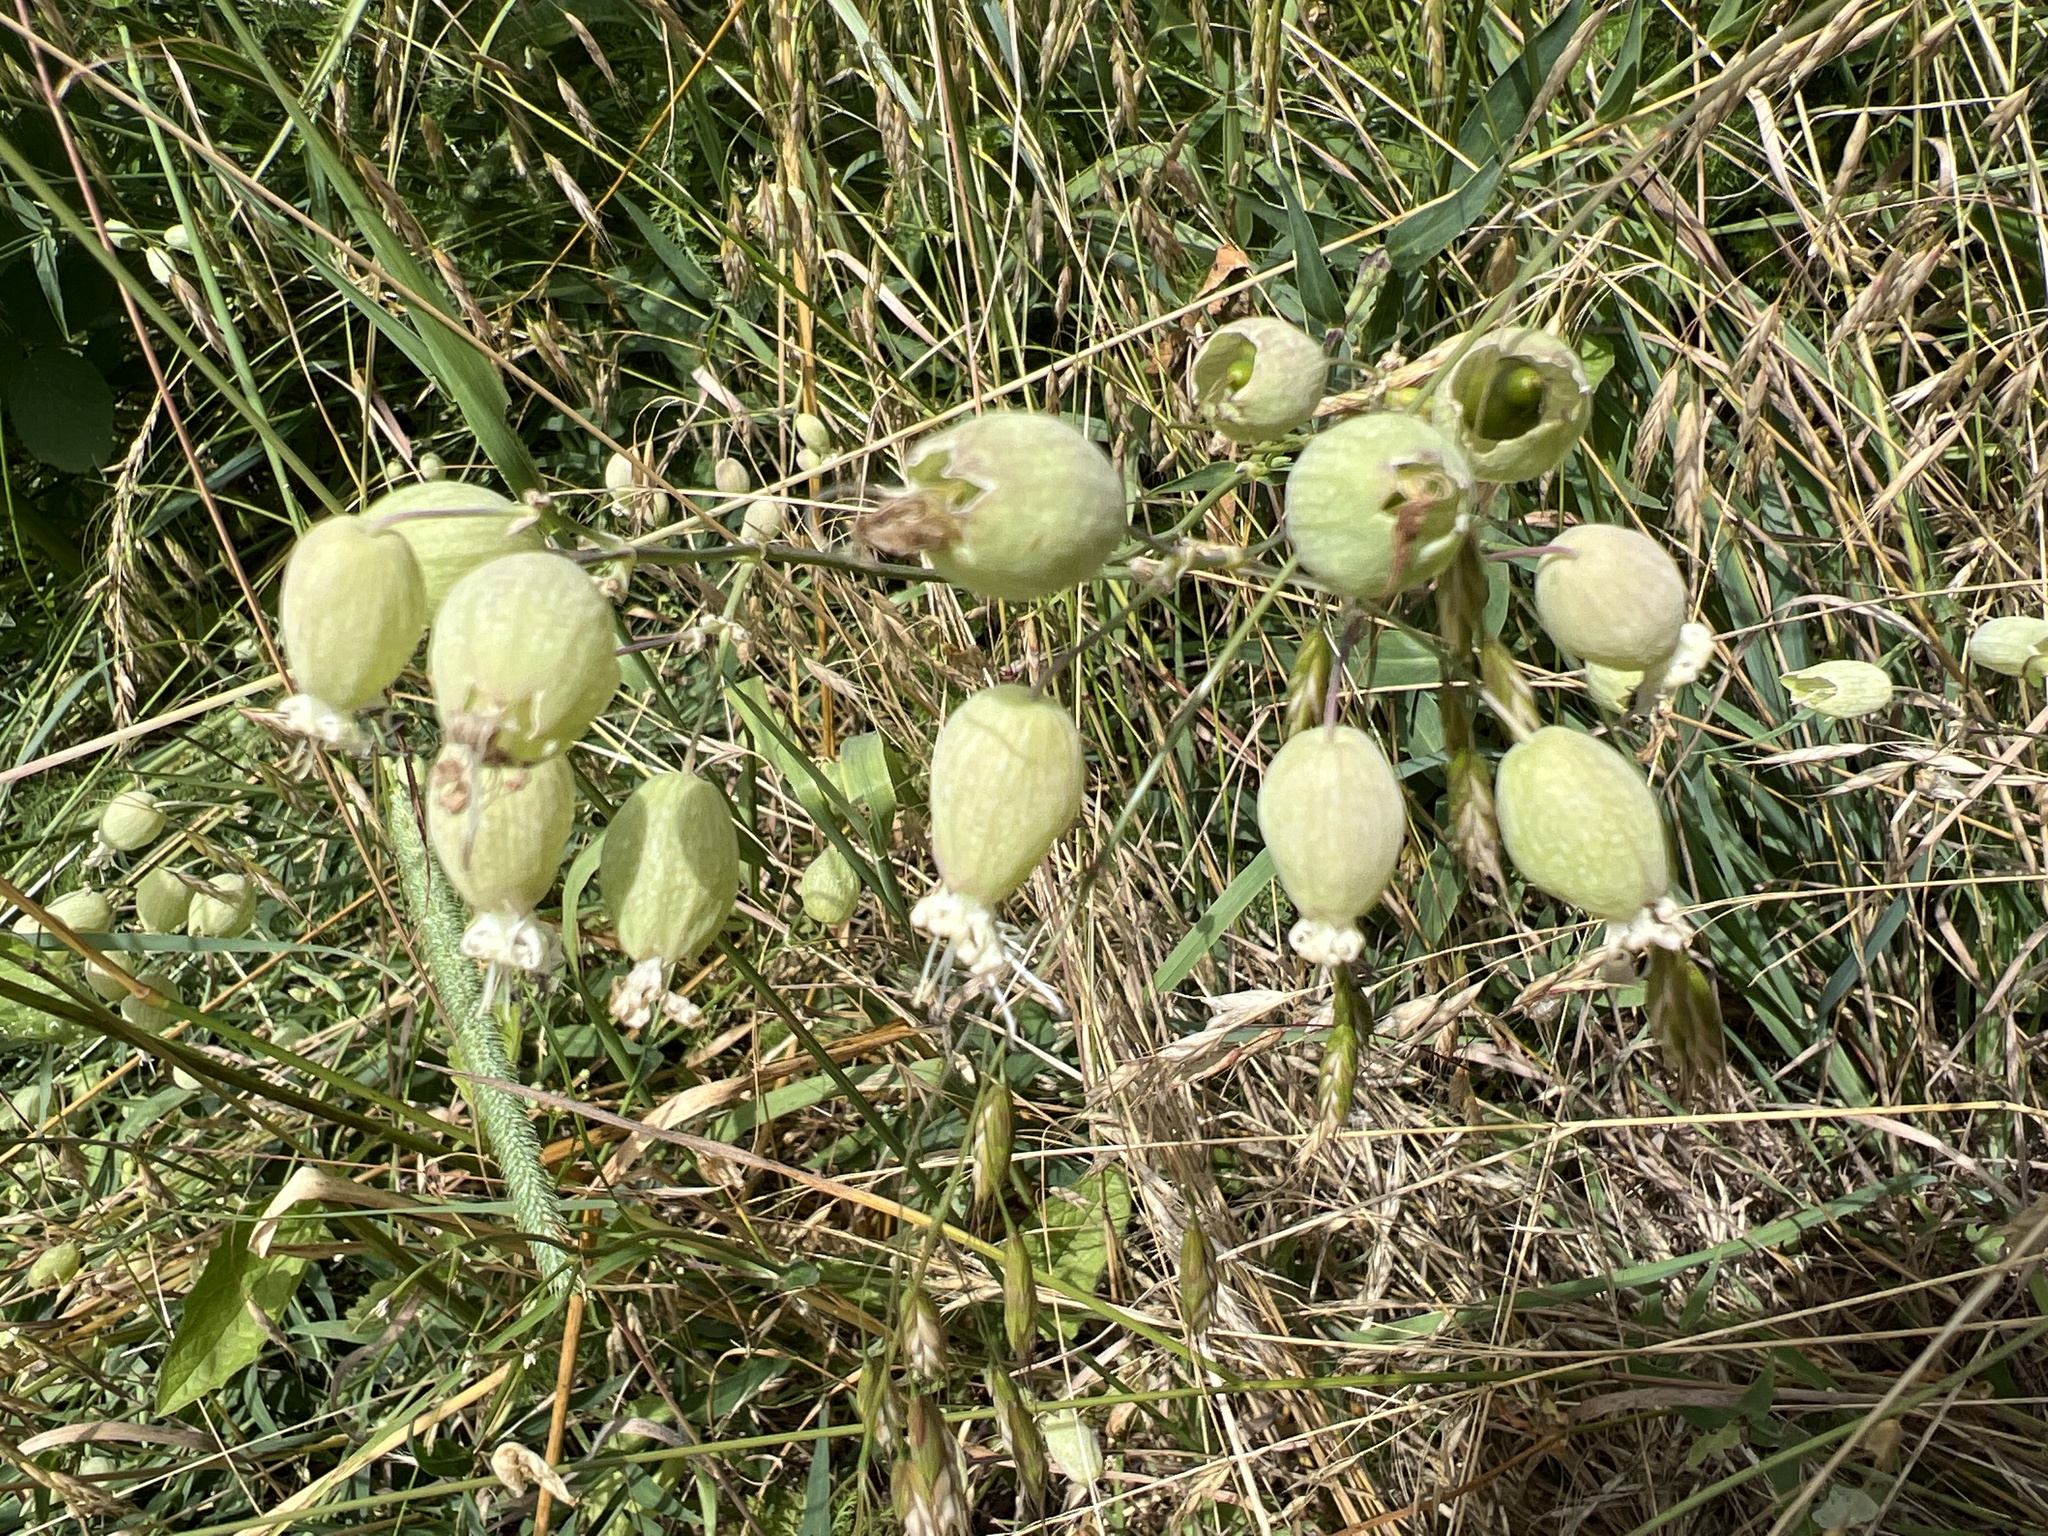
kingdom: Plantae
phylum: Tracheophyta
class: Magnoliopsida
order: Caryophyllales
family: Caryophyllaceae
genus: Silene
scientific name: Silene vulgaris
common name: Bladder campion
